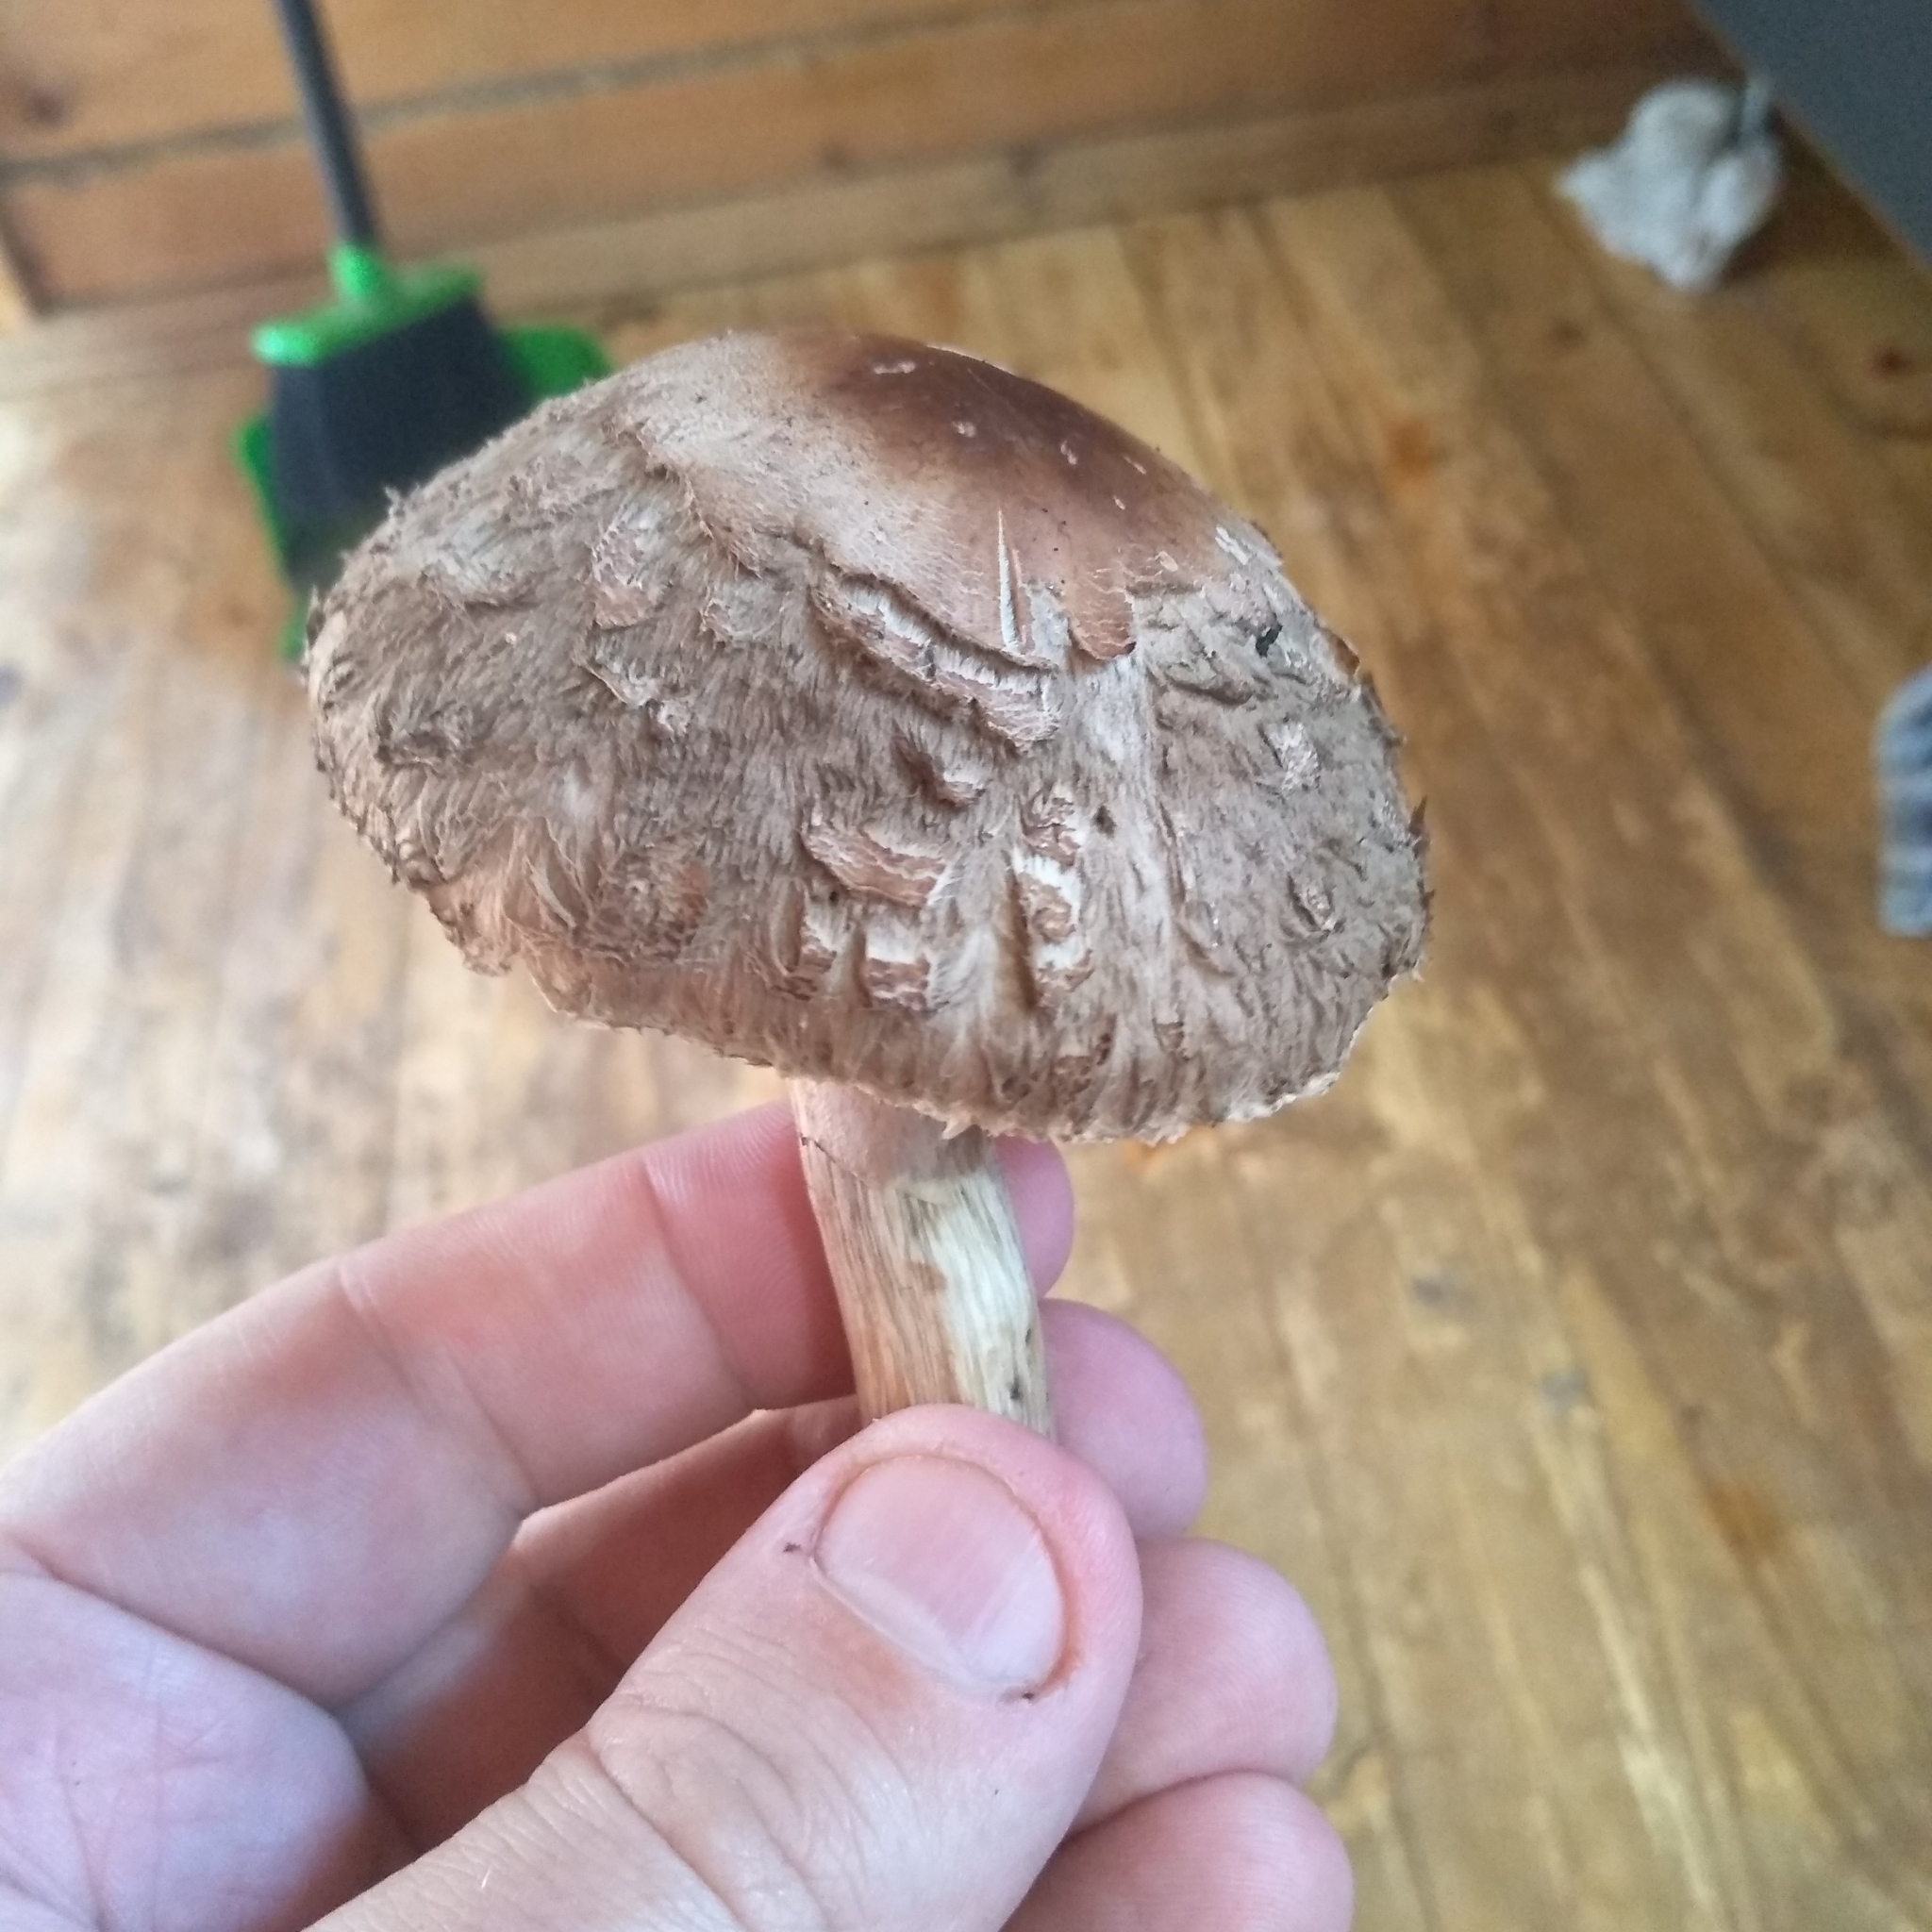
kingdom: Fungi
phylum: Basidiomycota
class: Agaricomycetes
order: Agaricales
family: Agaricaceae
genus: Chlorophyllum
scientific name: Chlorophyllum olivieri
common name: Conifer parasol
